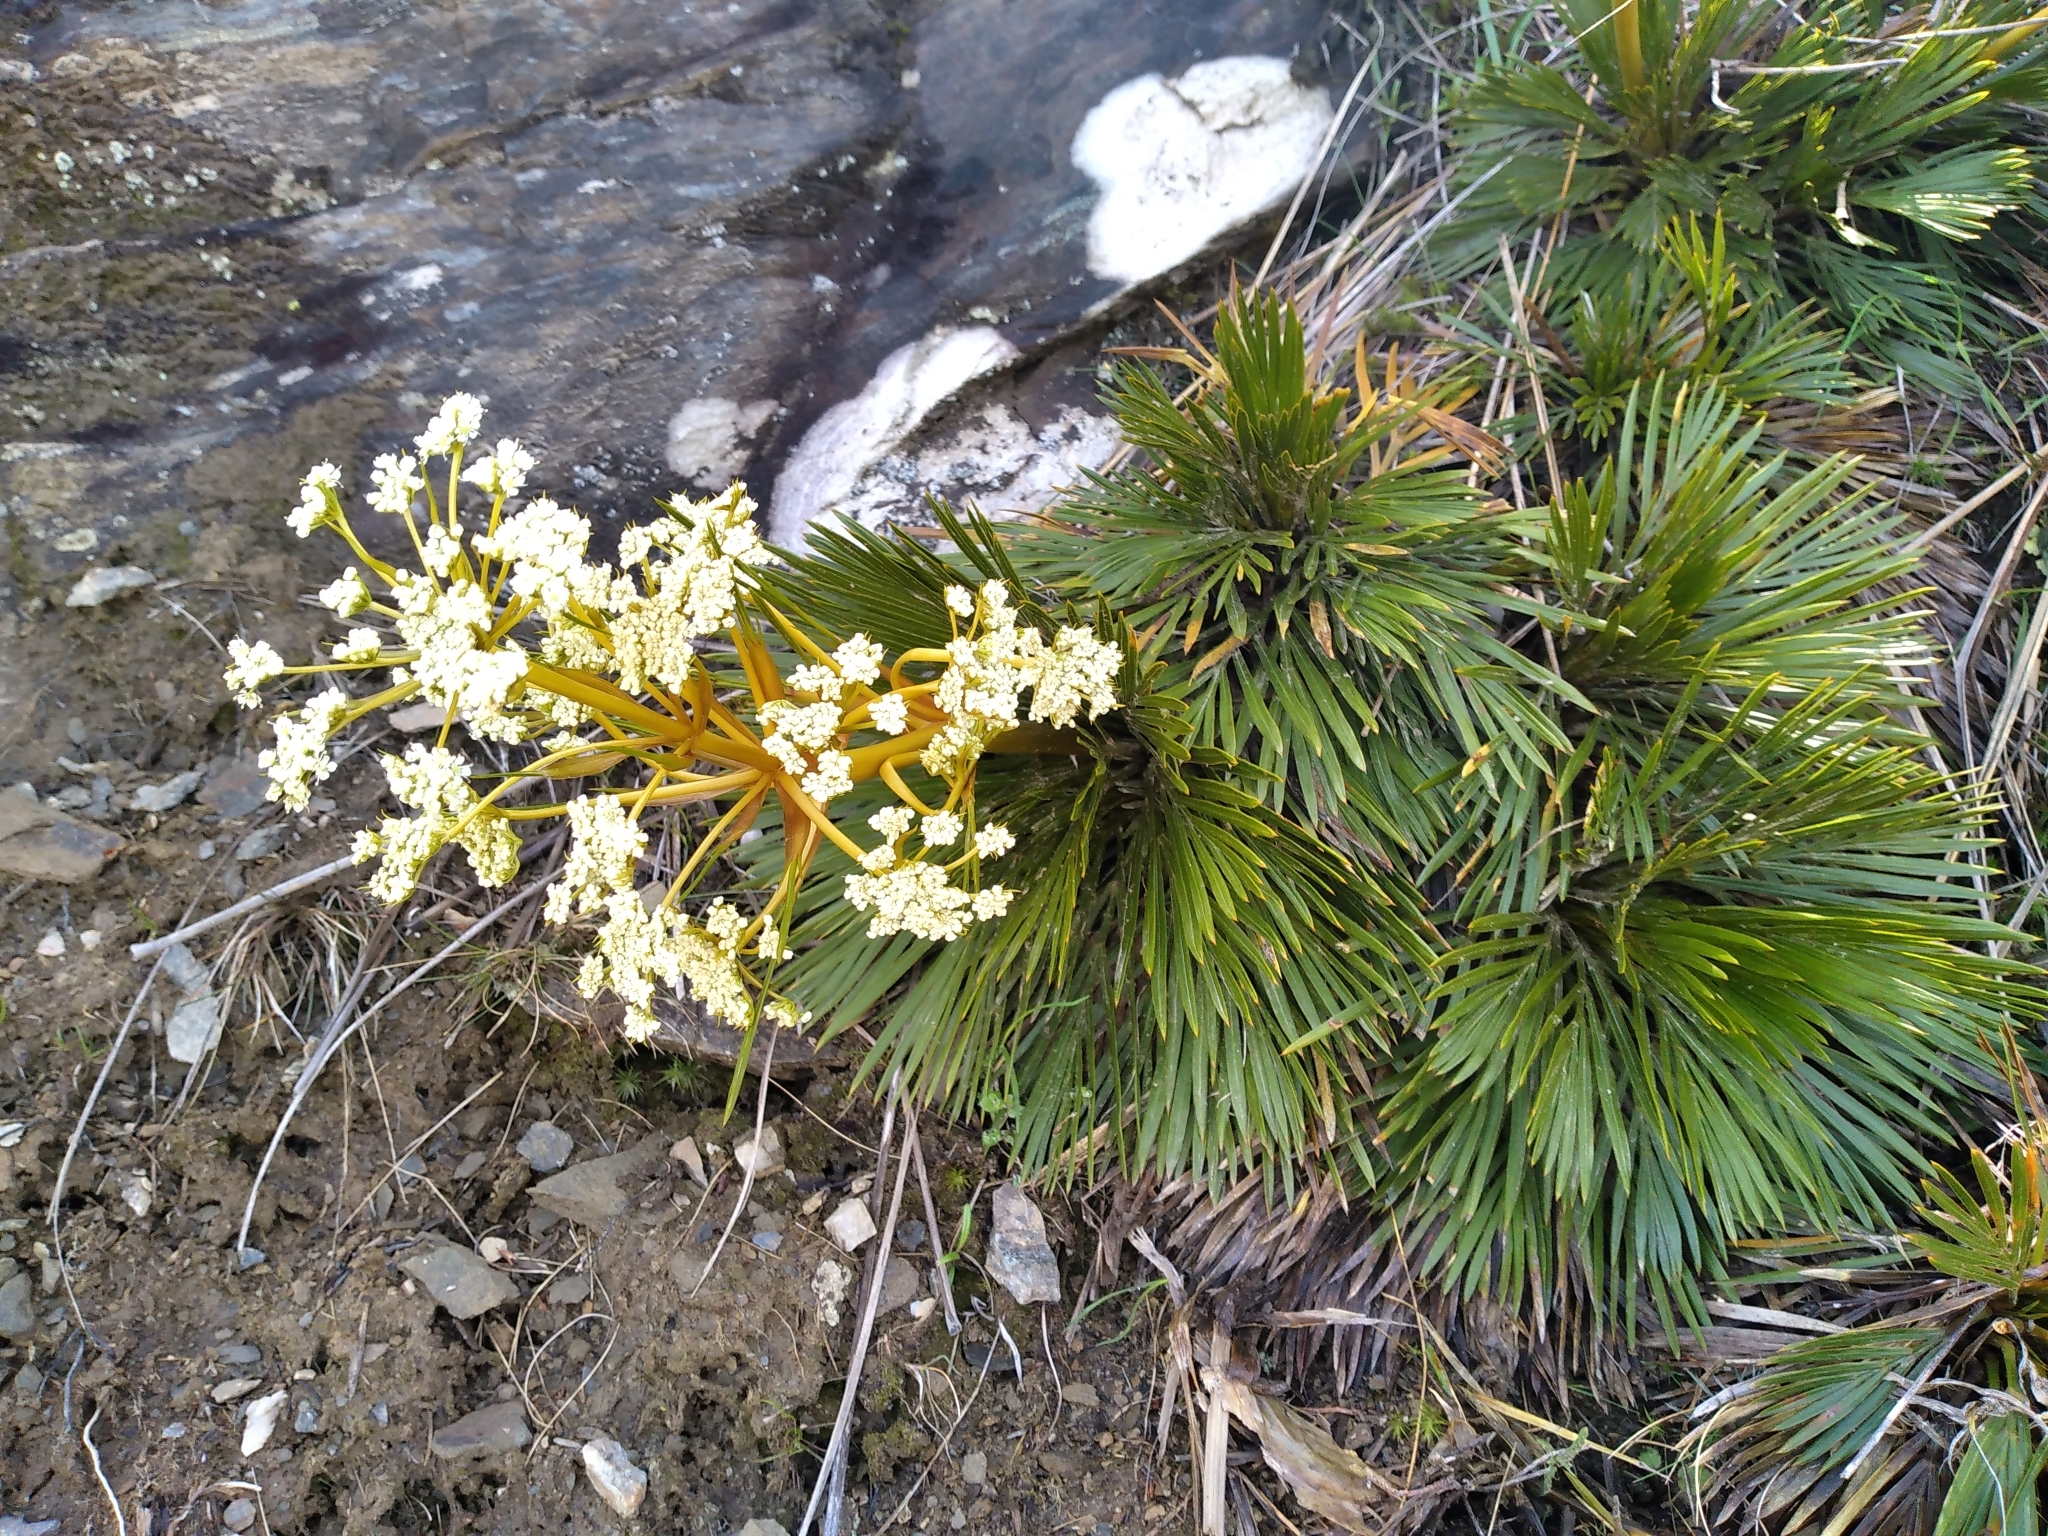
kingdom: Plantae
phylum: Tracheophyta
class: Magnoliopsida
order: Apiales
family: Apiaceae
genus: Aciphylla
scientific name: Aciphylla lecomtei
